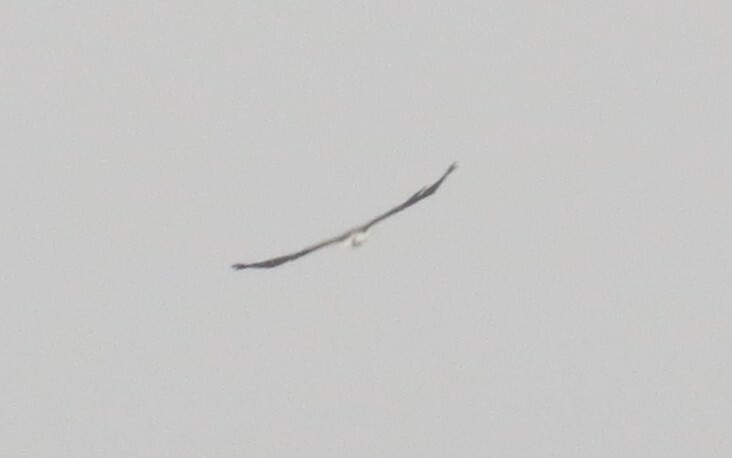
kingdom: Animalia
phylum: Chordata
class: Aves
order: Accipitriformes
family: Accipitridae
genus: Haliaeetus
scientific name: Haliaeetus leucocephalus
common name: Bald eagle
